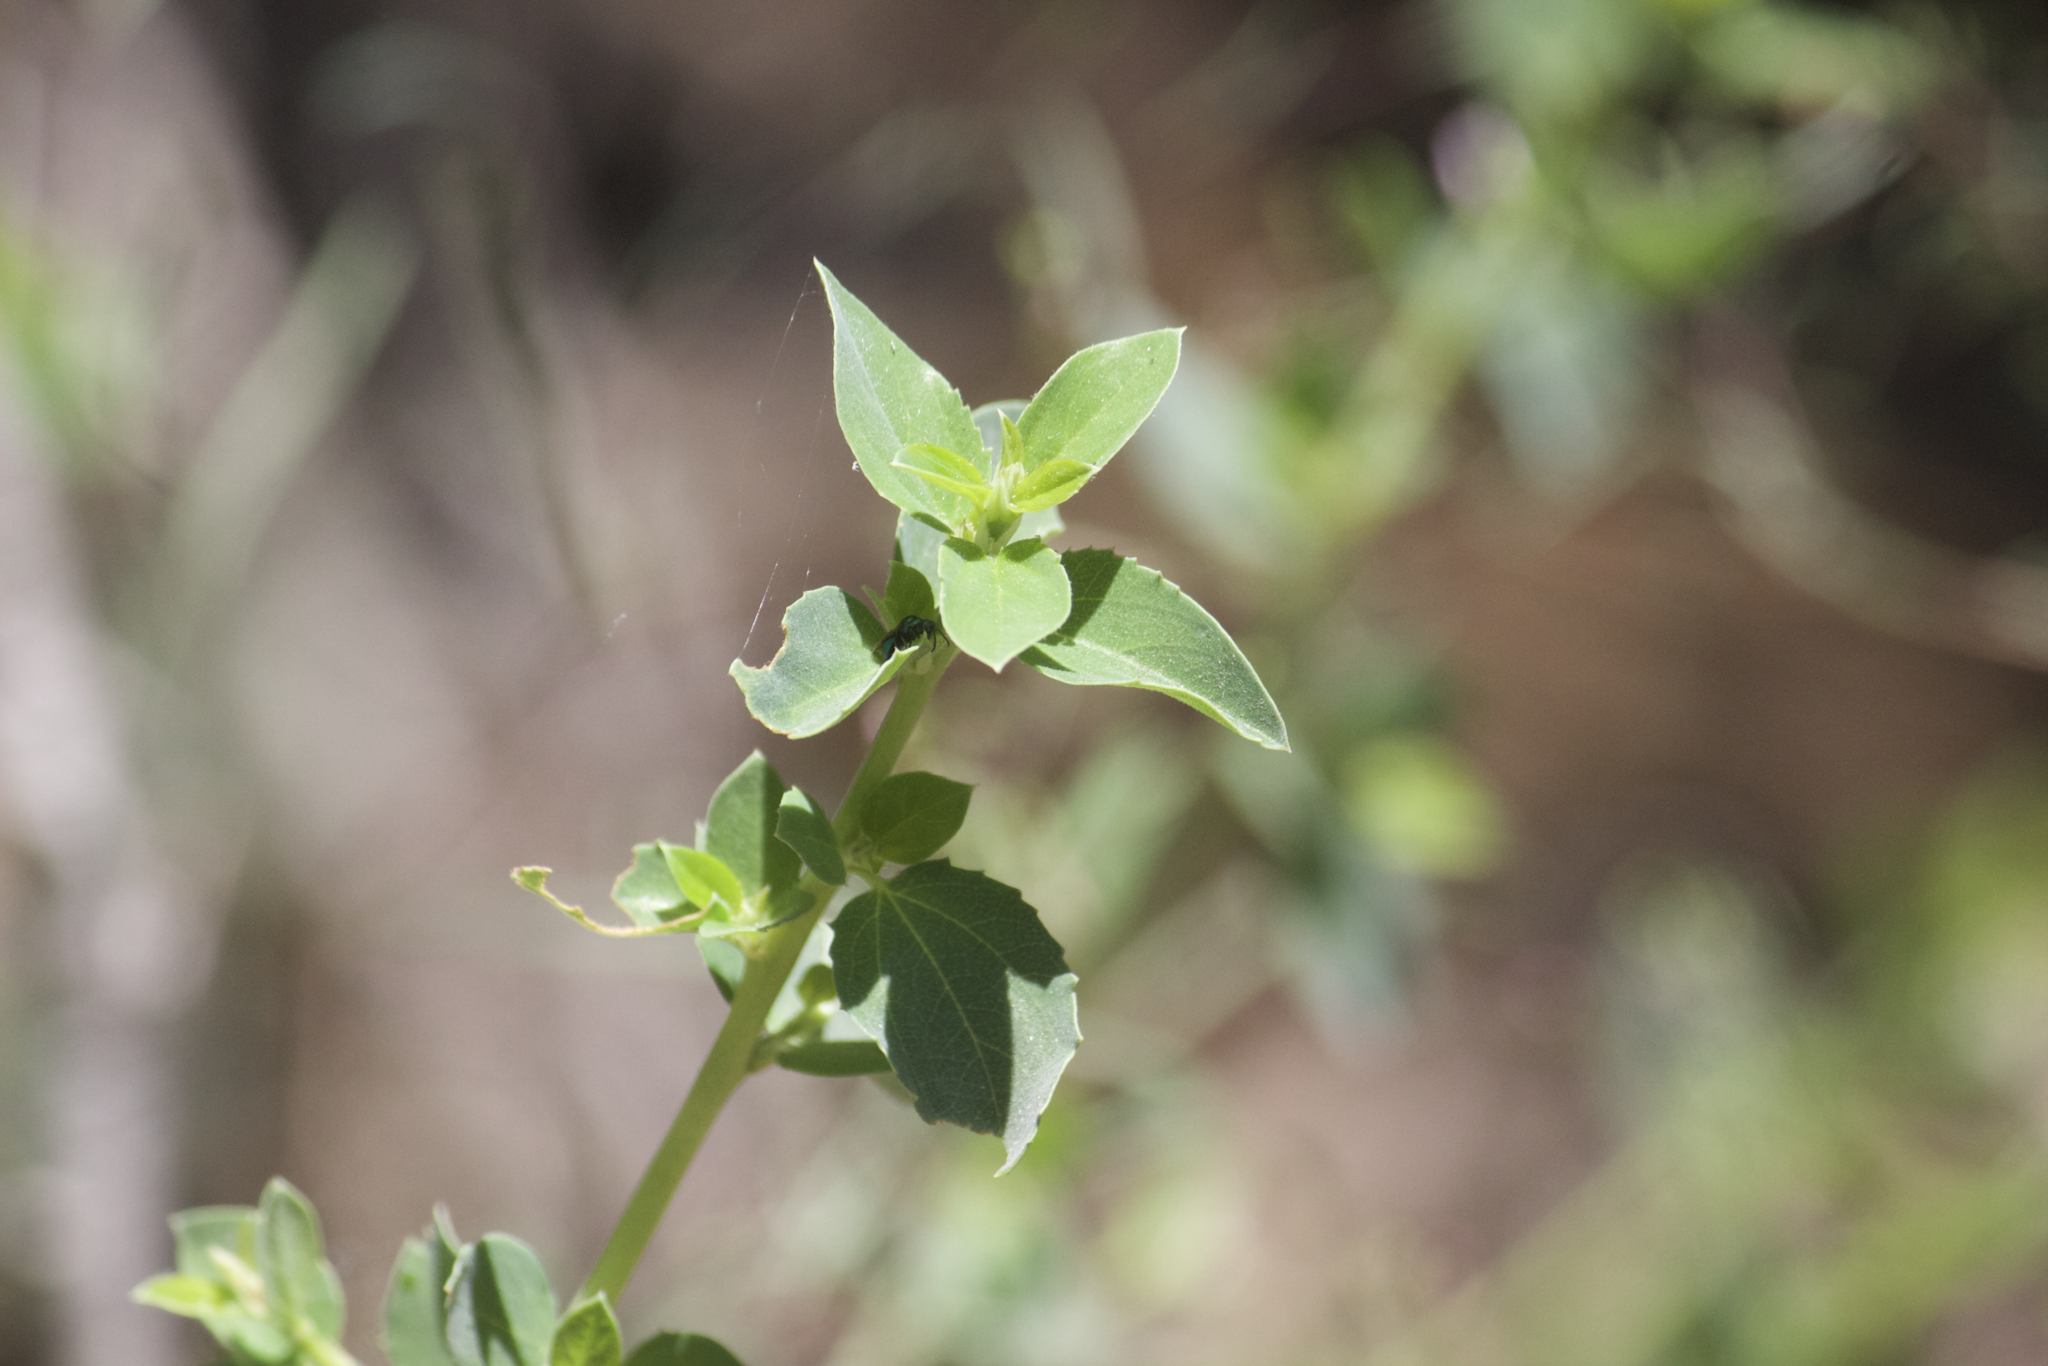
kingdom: Plantae
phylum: Tracheophyta
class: Magnoliopsida
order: Lamiales
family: Plantaginaceae
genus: Keckiella
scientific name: Keckiella cordifolia
